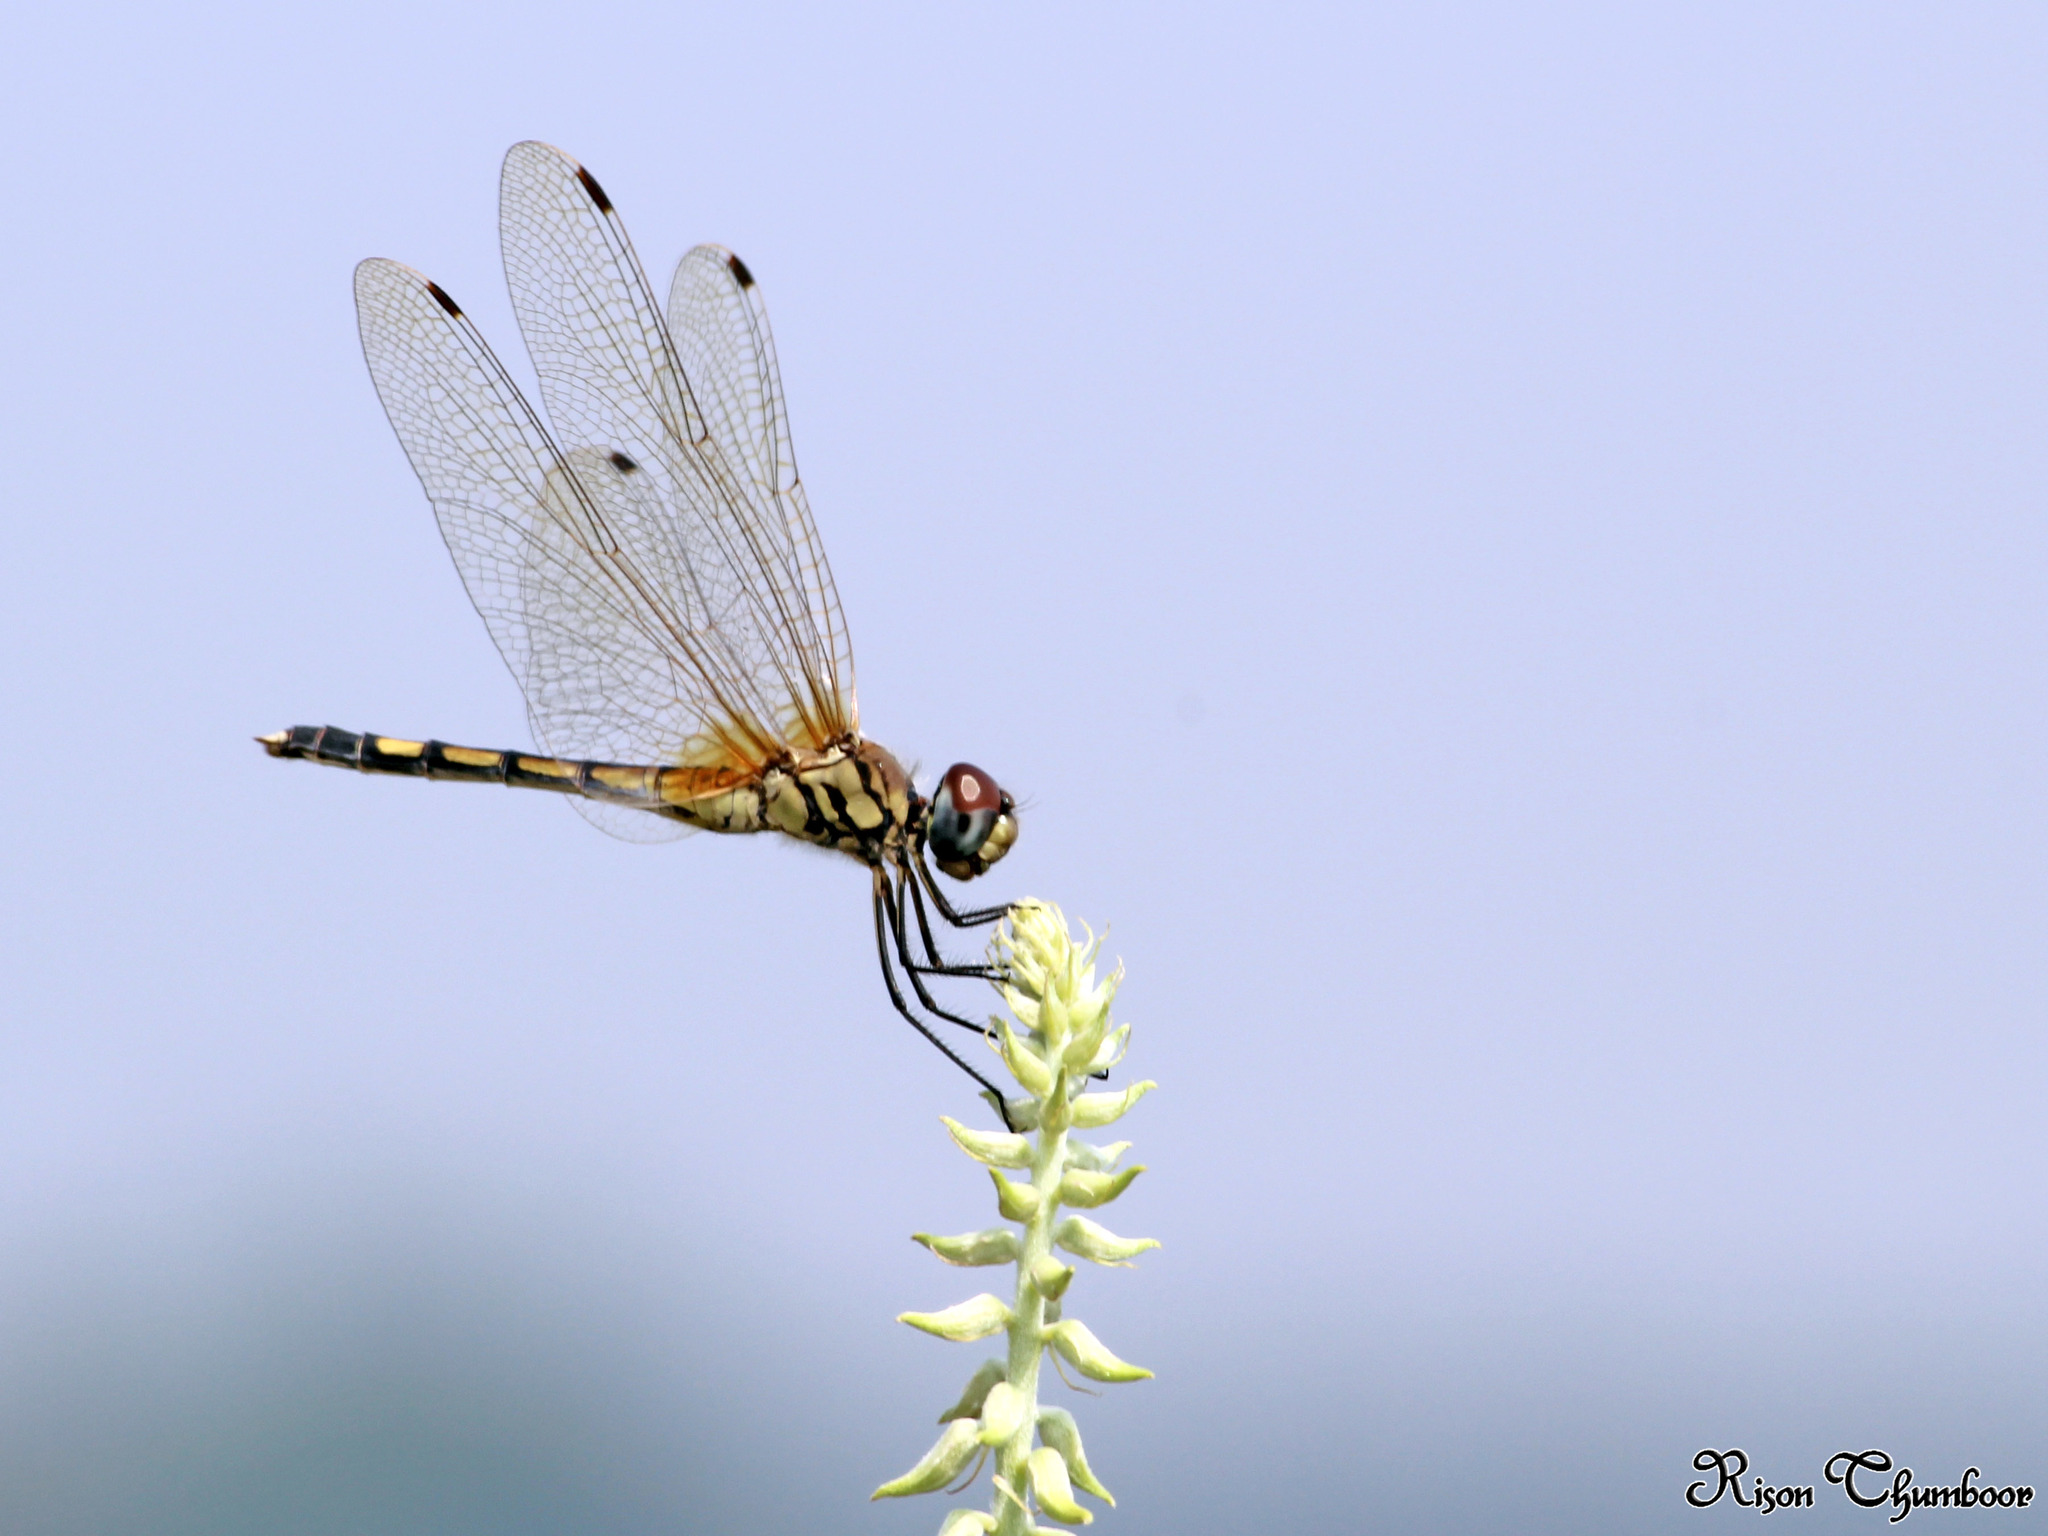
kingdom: Animalia
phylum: Arthropoda
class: Insecta
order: Odonata
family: Libellulidae
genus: Trithemis
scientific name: Trithemis pallidinervis
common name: Dancing dropwing
